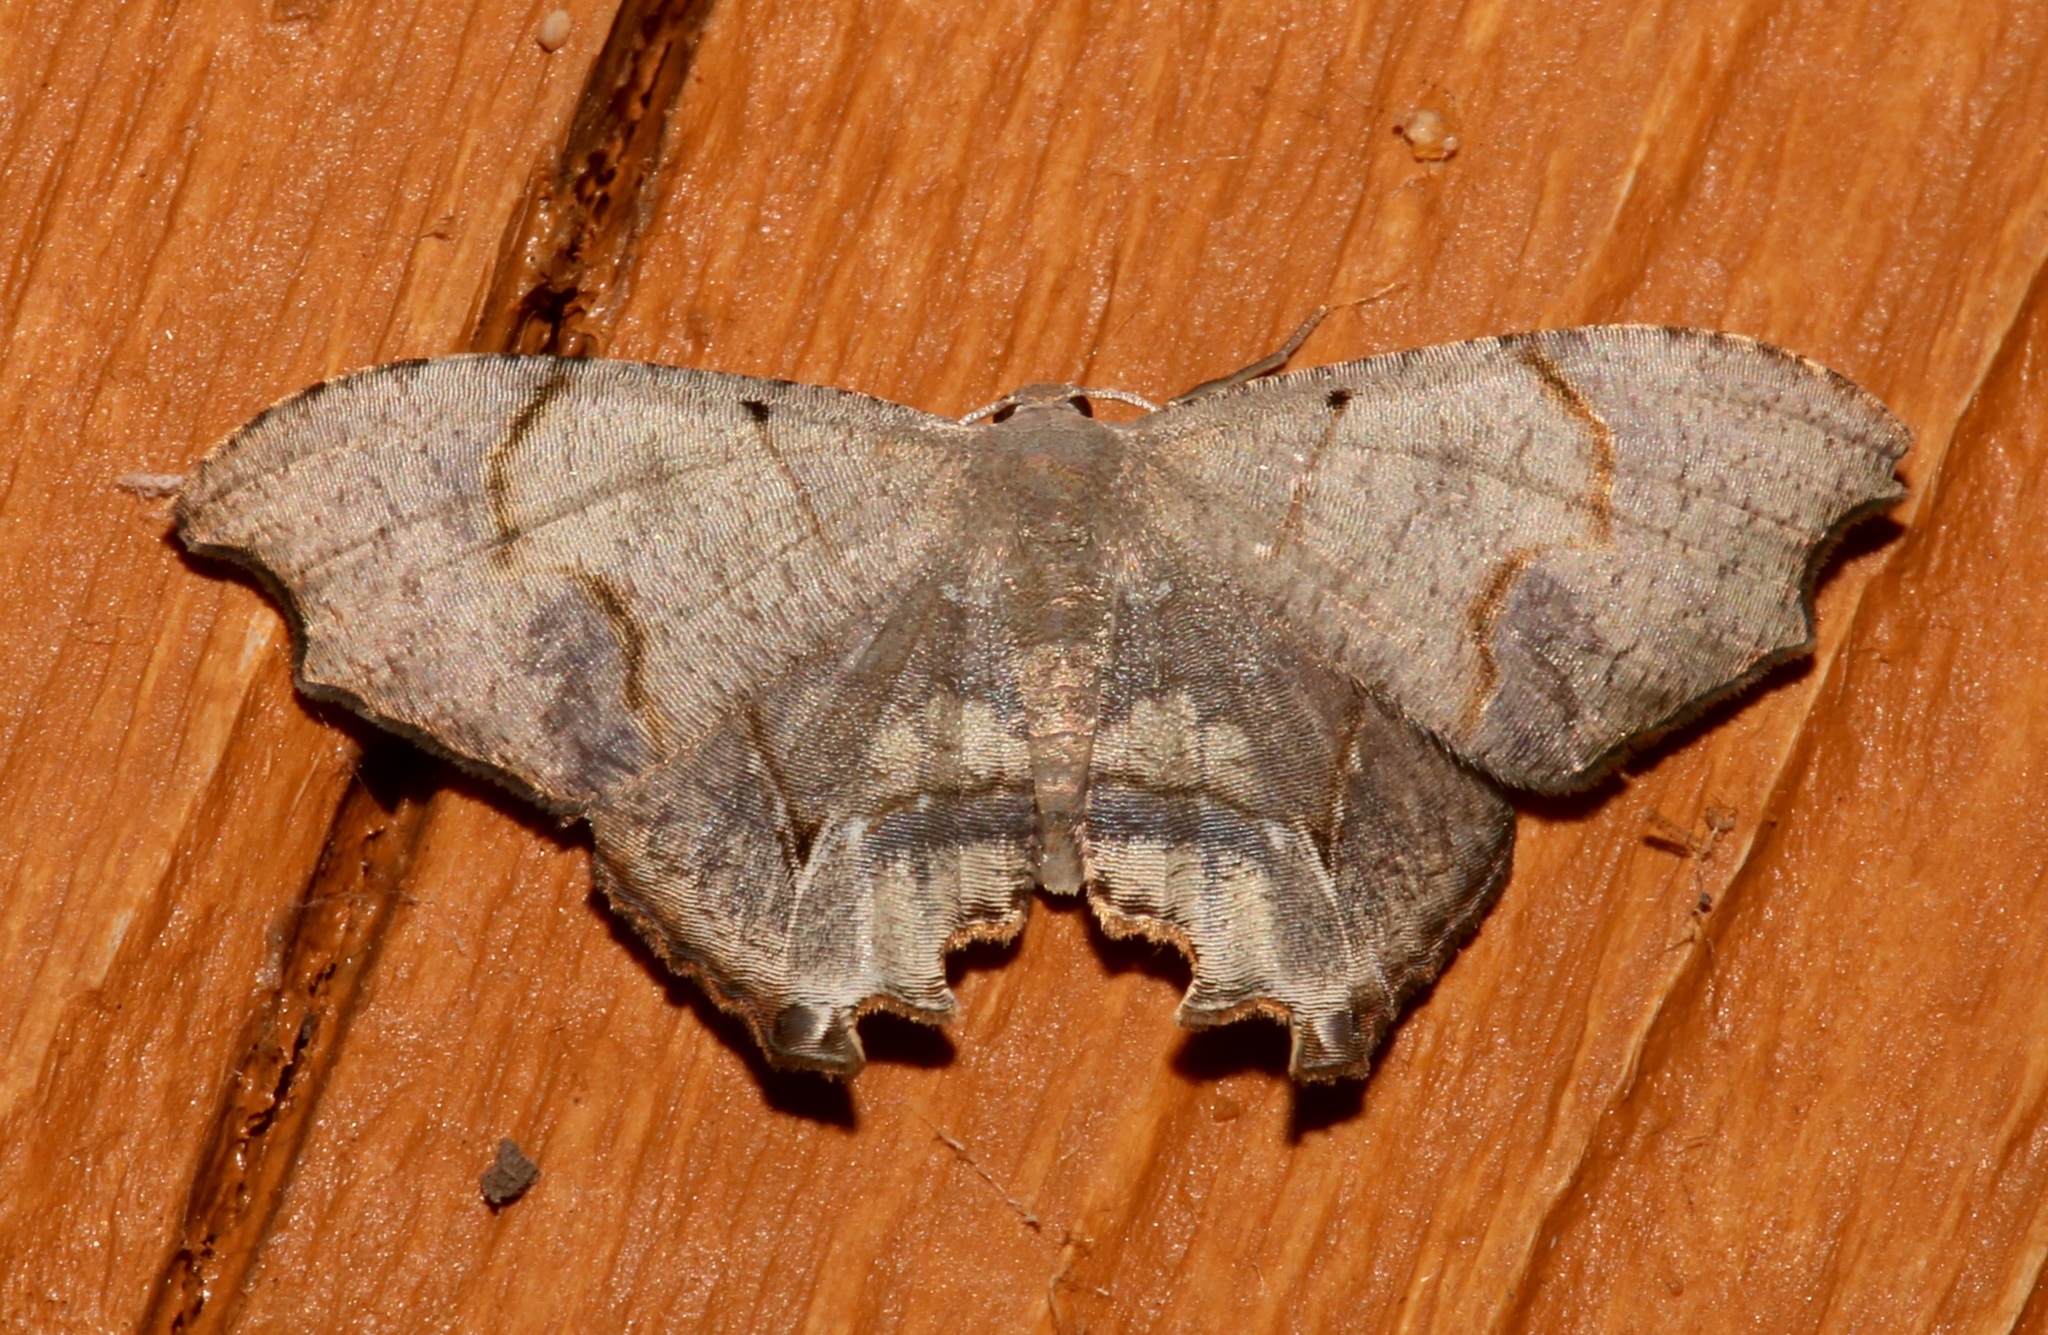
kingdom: Animalia
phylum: Arthropoda
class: Insecta
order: Lepidoptera
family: Uraniidae
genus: Trotorhombia
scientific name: Trotorhombia metachromata
